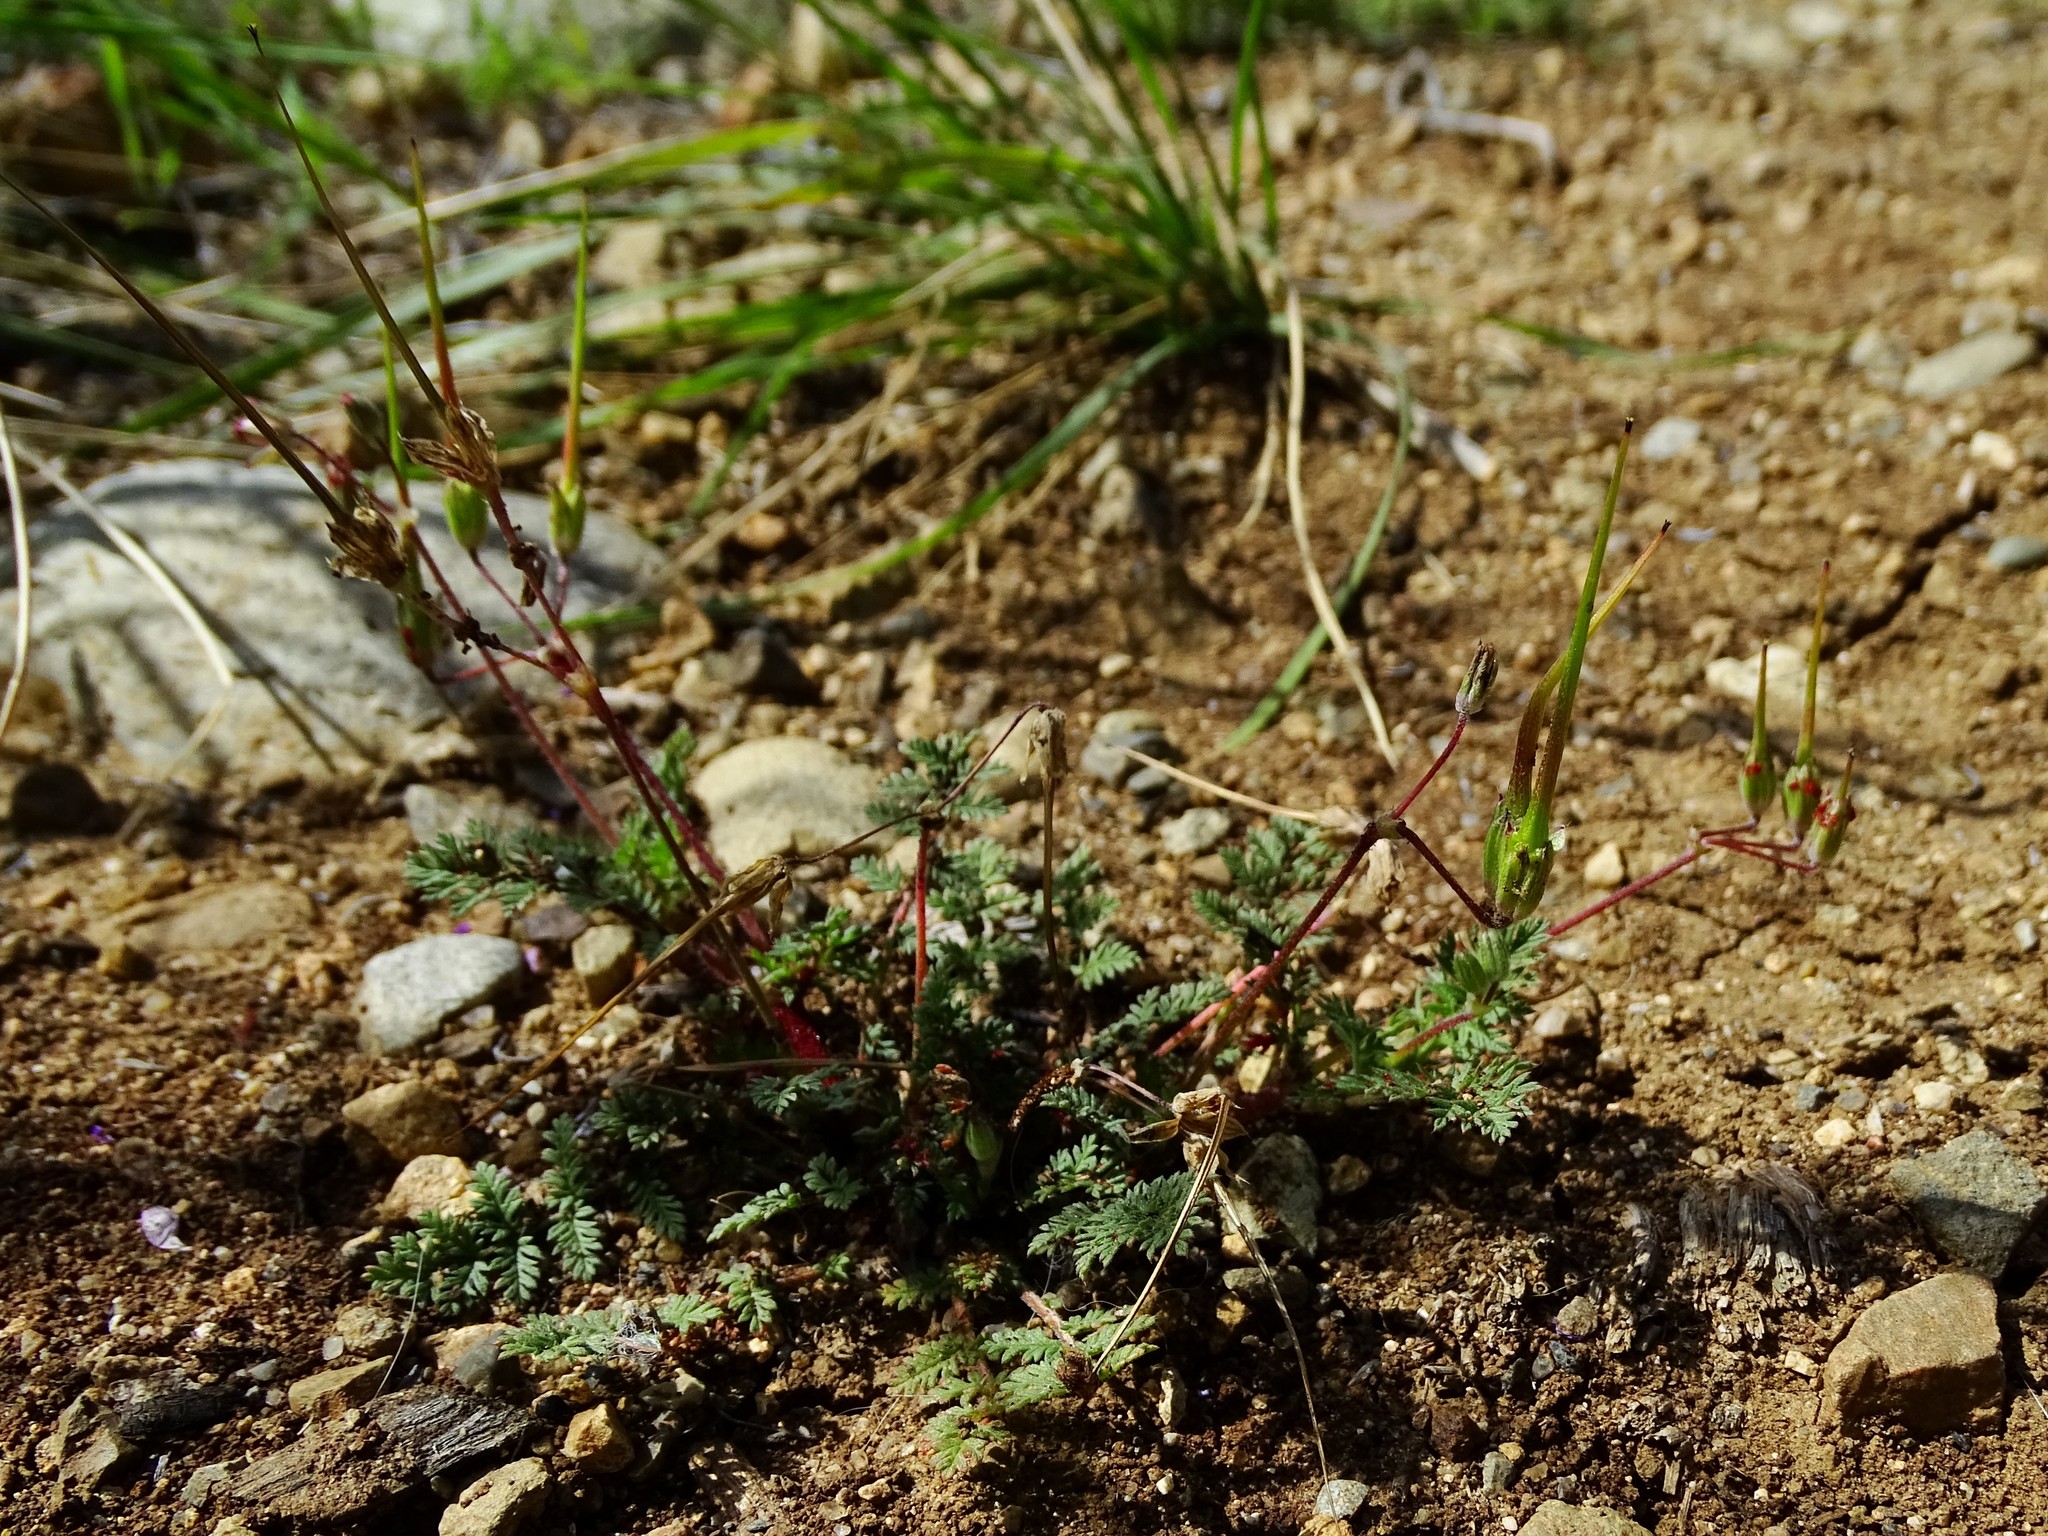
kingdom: Plantae
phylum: Tracheophyta
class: Magnoliopsida
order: Geraniales
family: Geraniaceae
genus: Erodium
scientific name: Erodium cicutarium
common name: Common stork's-bill
